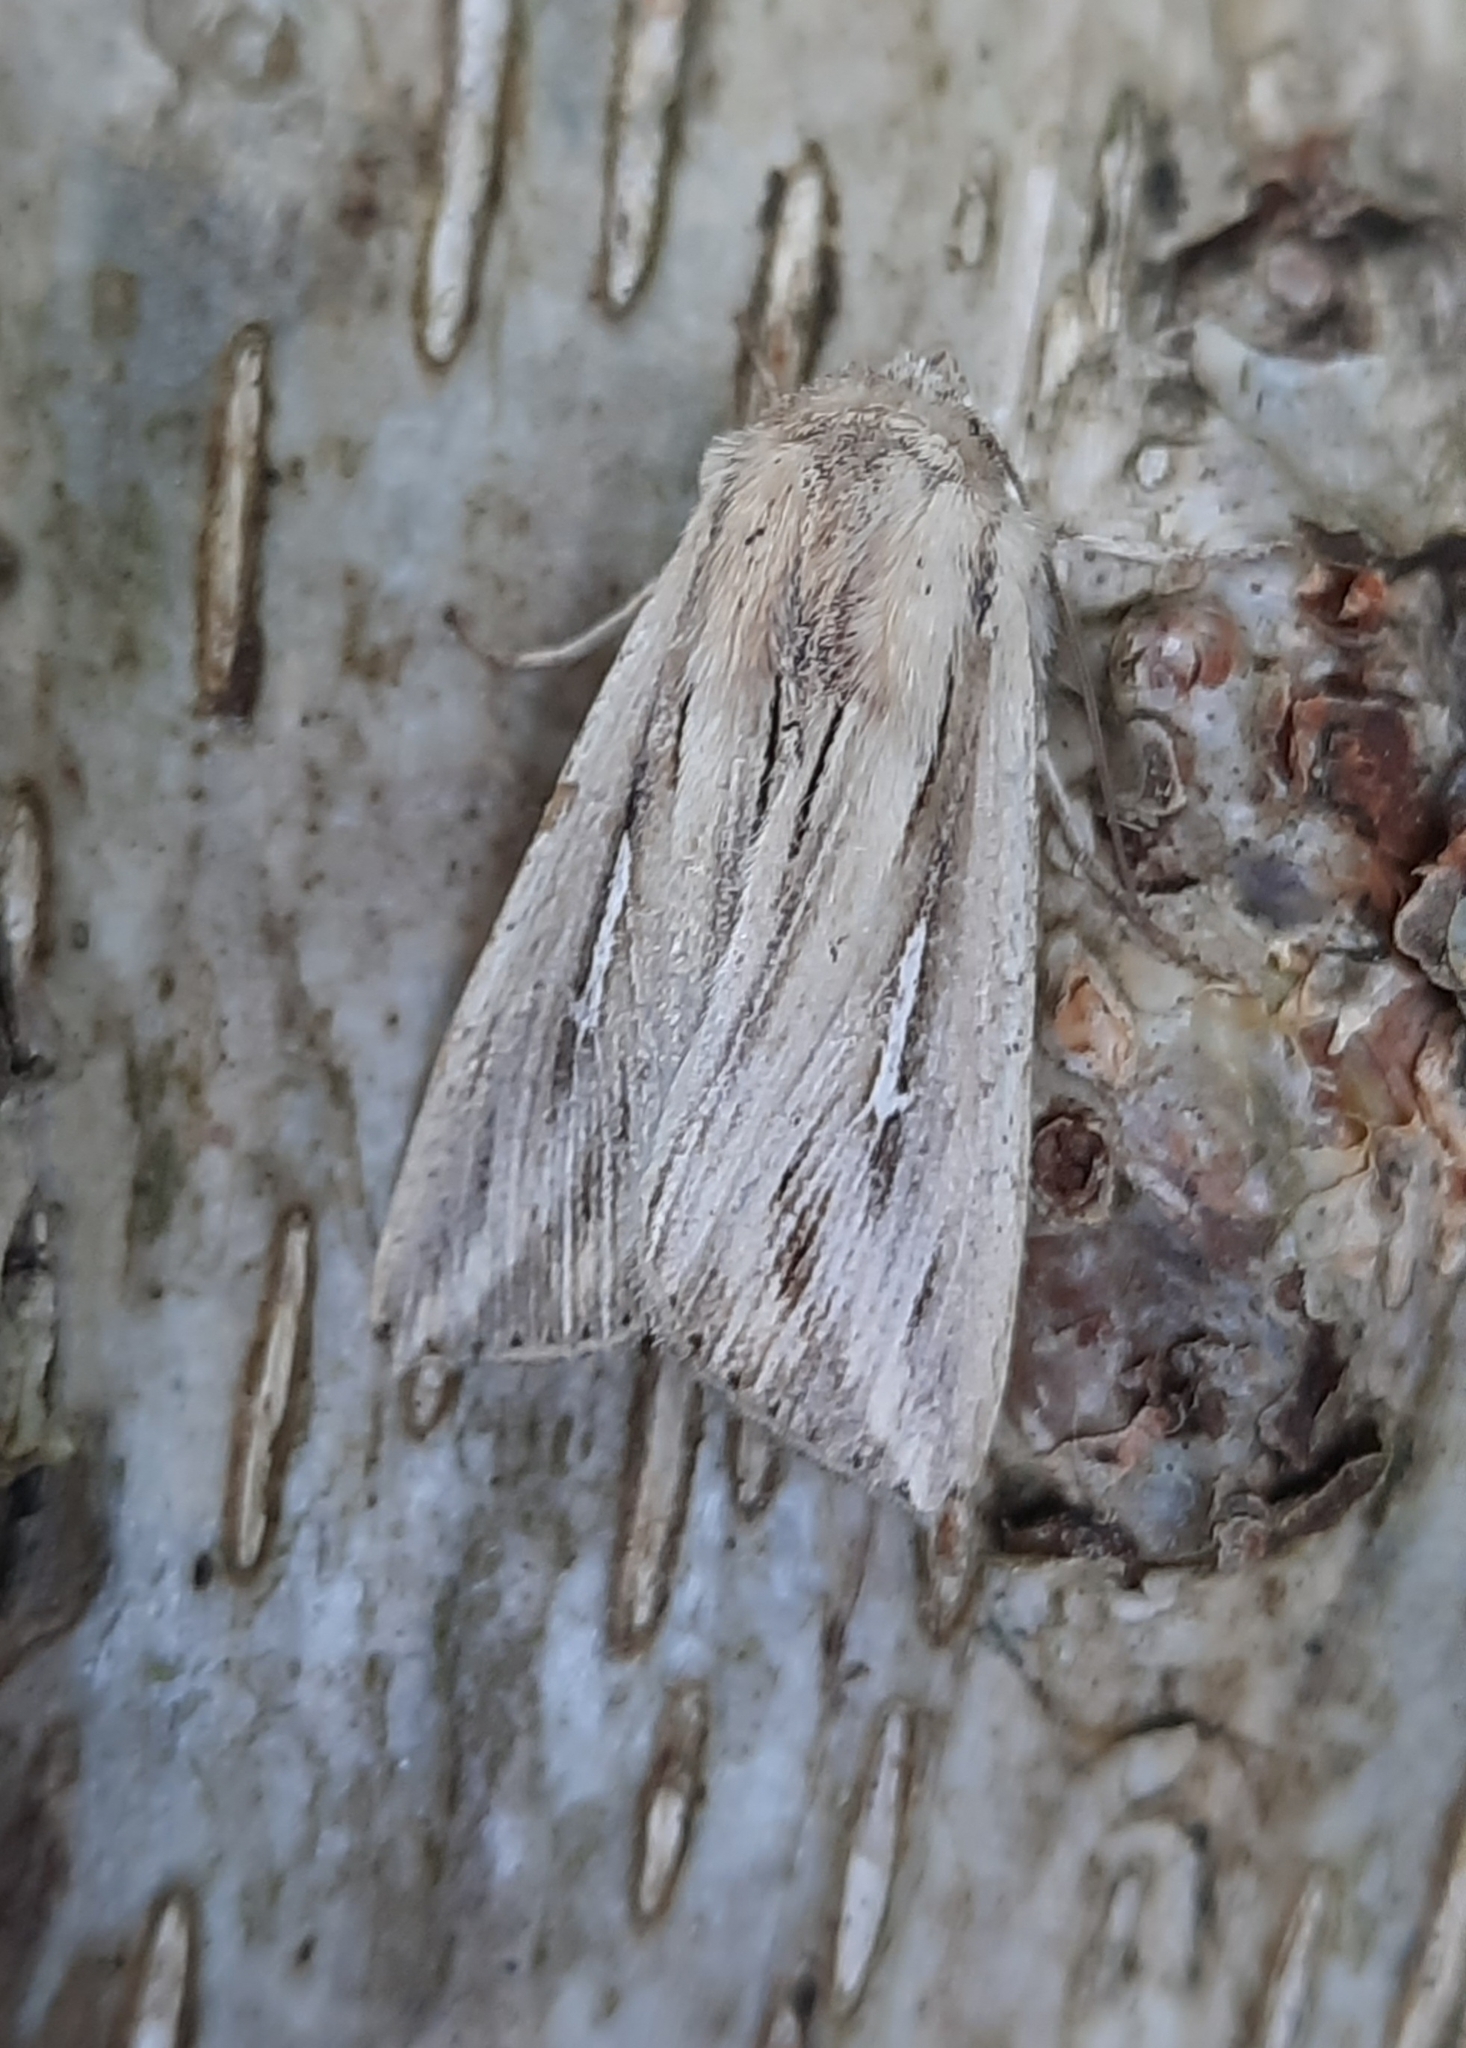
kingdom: Animalia
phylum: Arthropoda
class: Insecta
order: Lepidoptera
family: Noctuidae
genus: Mythimna
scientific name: Mythimna l-album
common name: L-album wainscot
